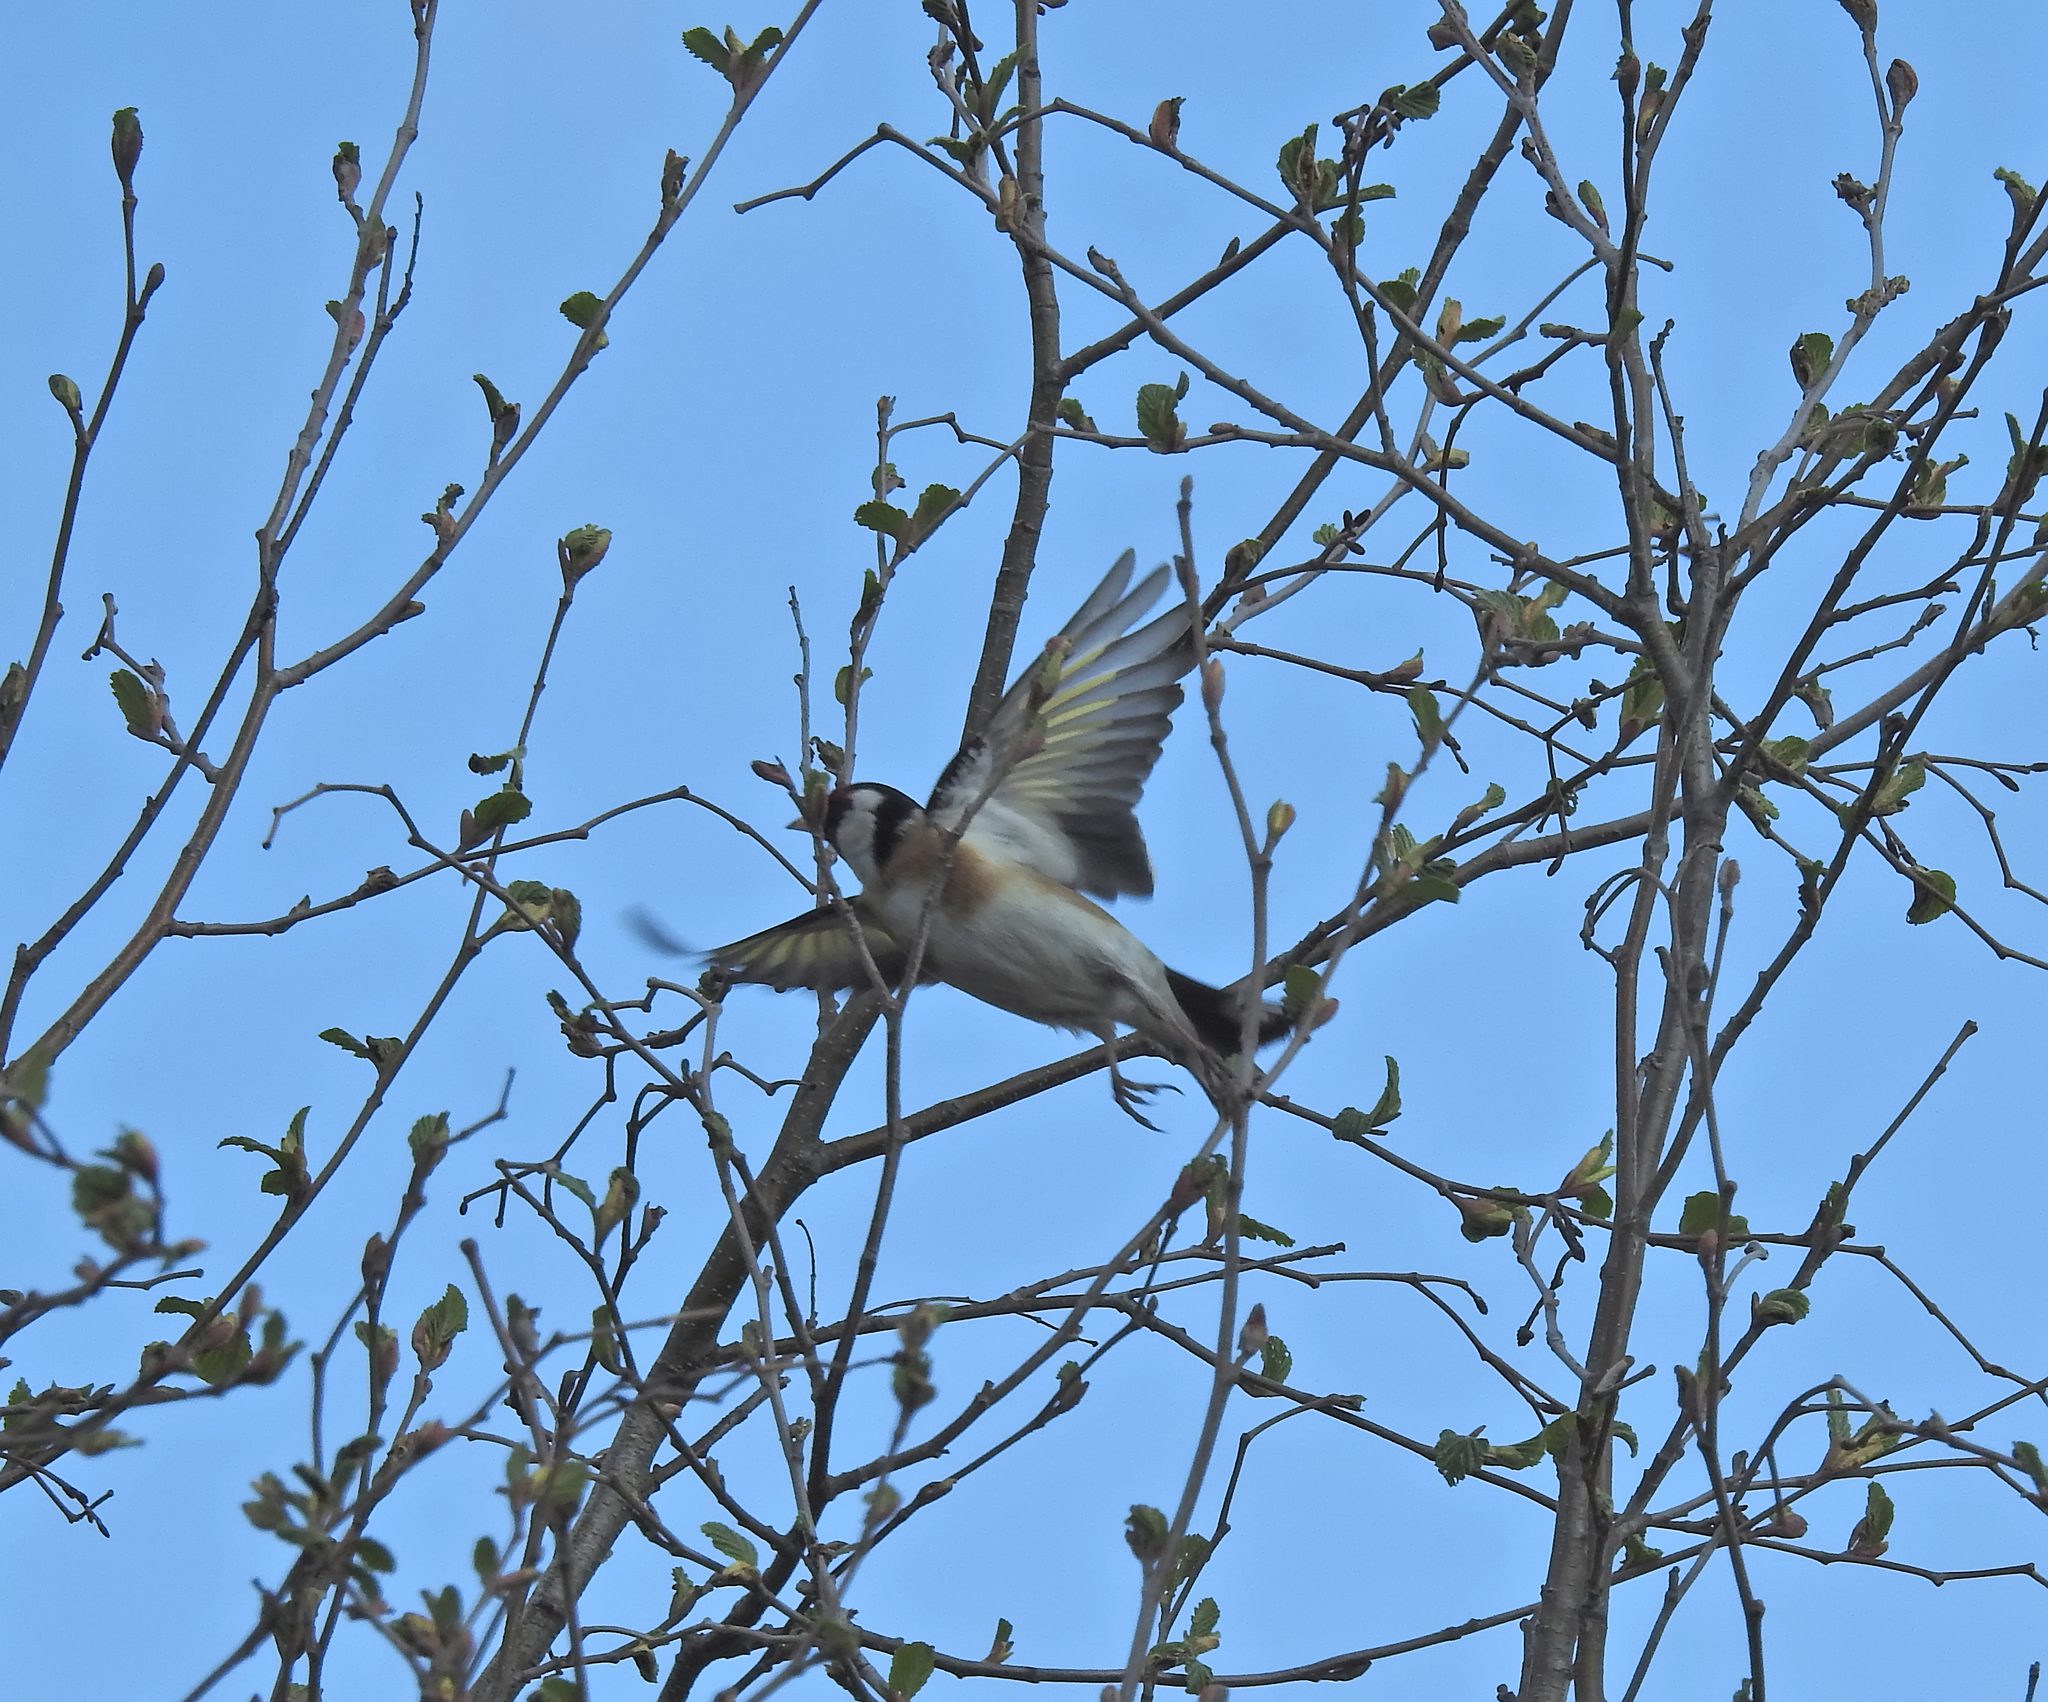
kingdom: Animalia
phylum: Chordata
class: Aves
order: Passeriformes
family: Fringillidae
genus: Carduelis
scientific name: Carduelis carduelis
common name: European goldfinch
